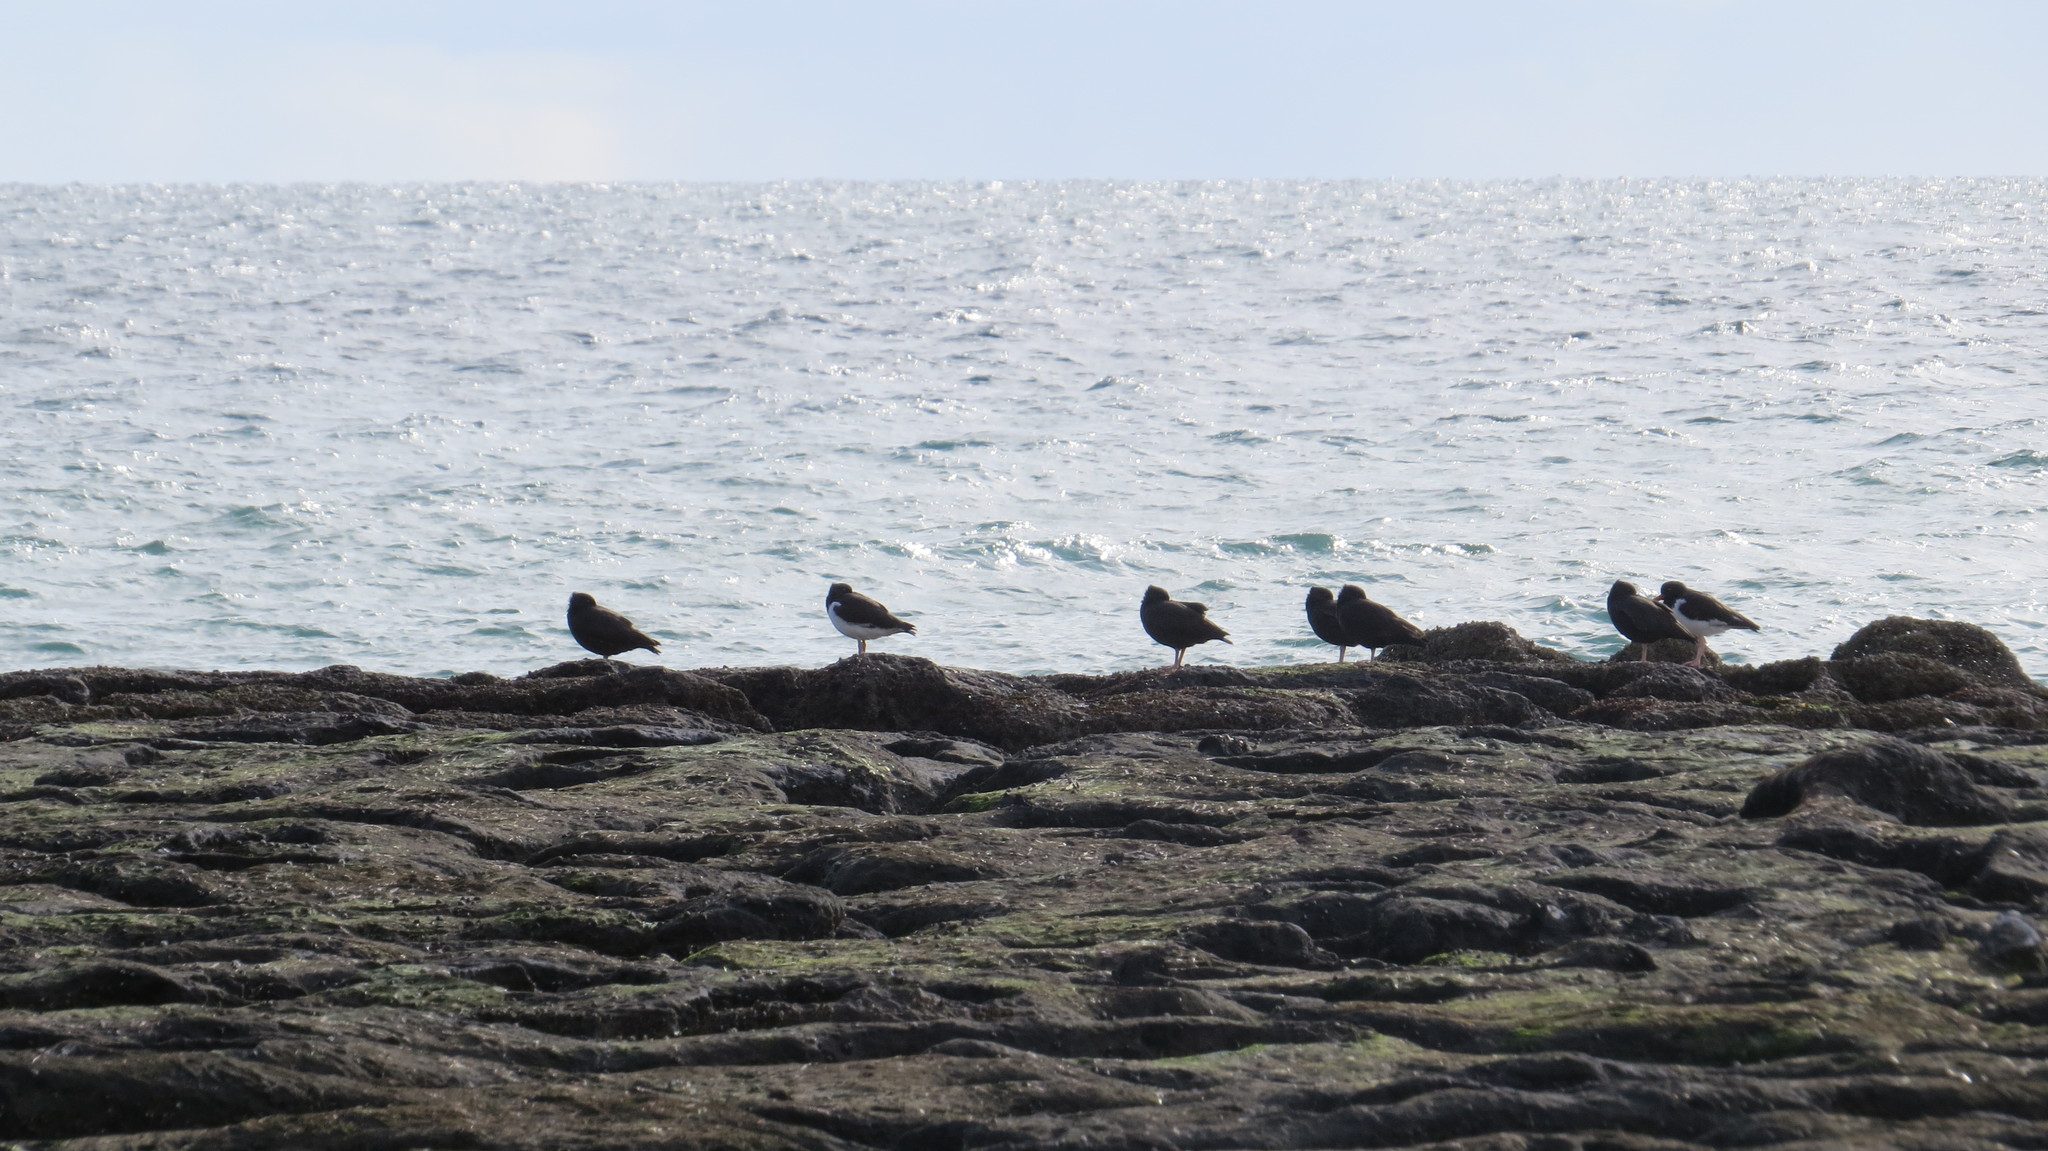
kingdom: Animalia
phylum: Chordata
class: Aves
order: Charadriiformes
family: Haematopodidae
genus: Haematopus
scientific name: Haematopus palliatus
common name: American oystercatcher
